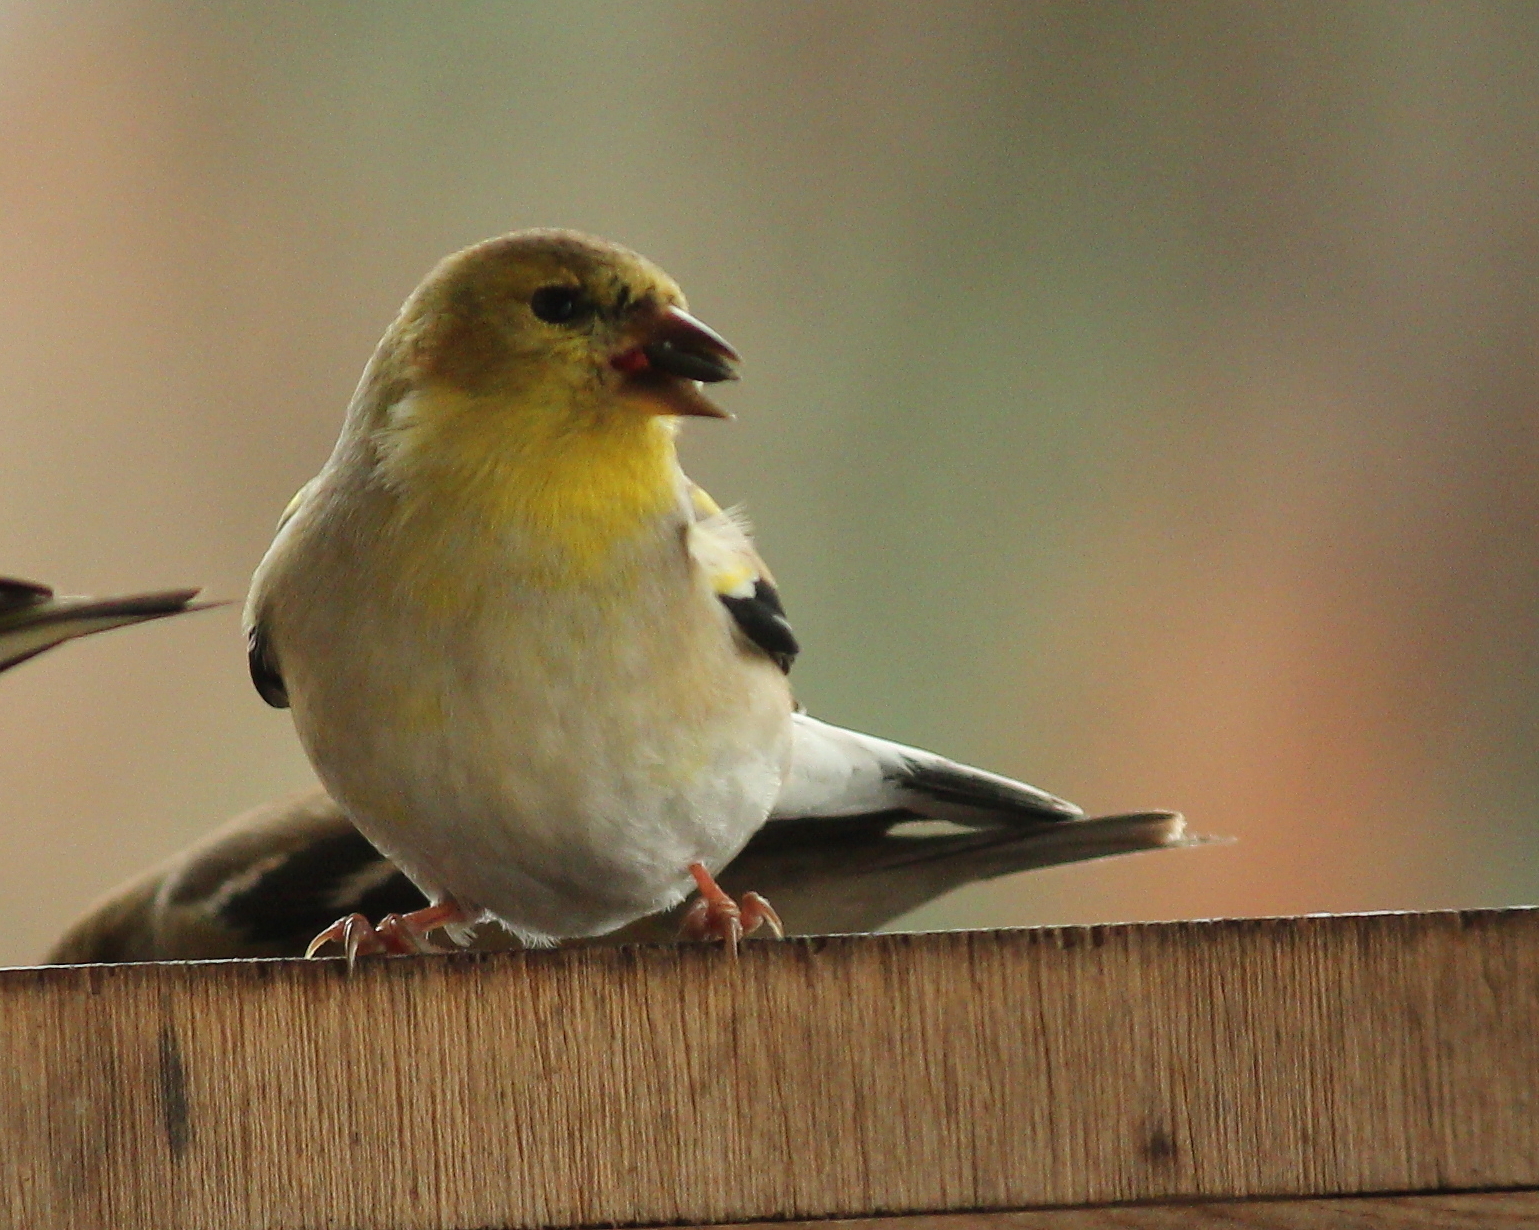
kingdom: Animalia
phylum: Chordata
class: Aves
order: Passeriformes
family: Fringillidae
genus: Spinus
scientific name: Spinus tristis
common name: American goldfinch
